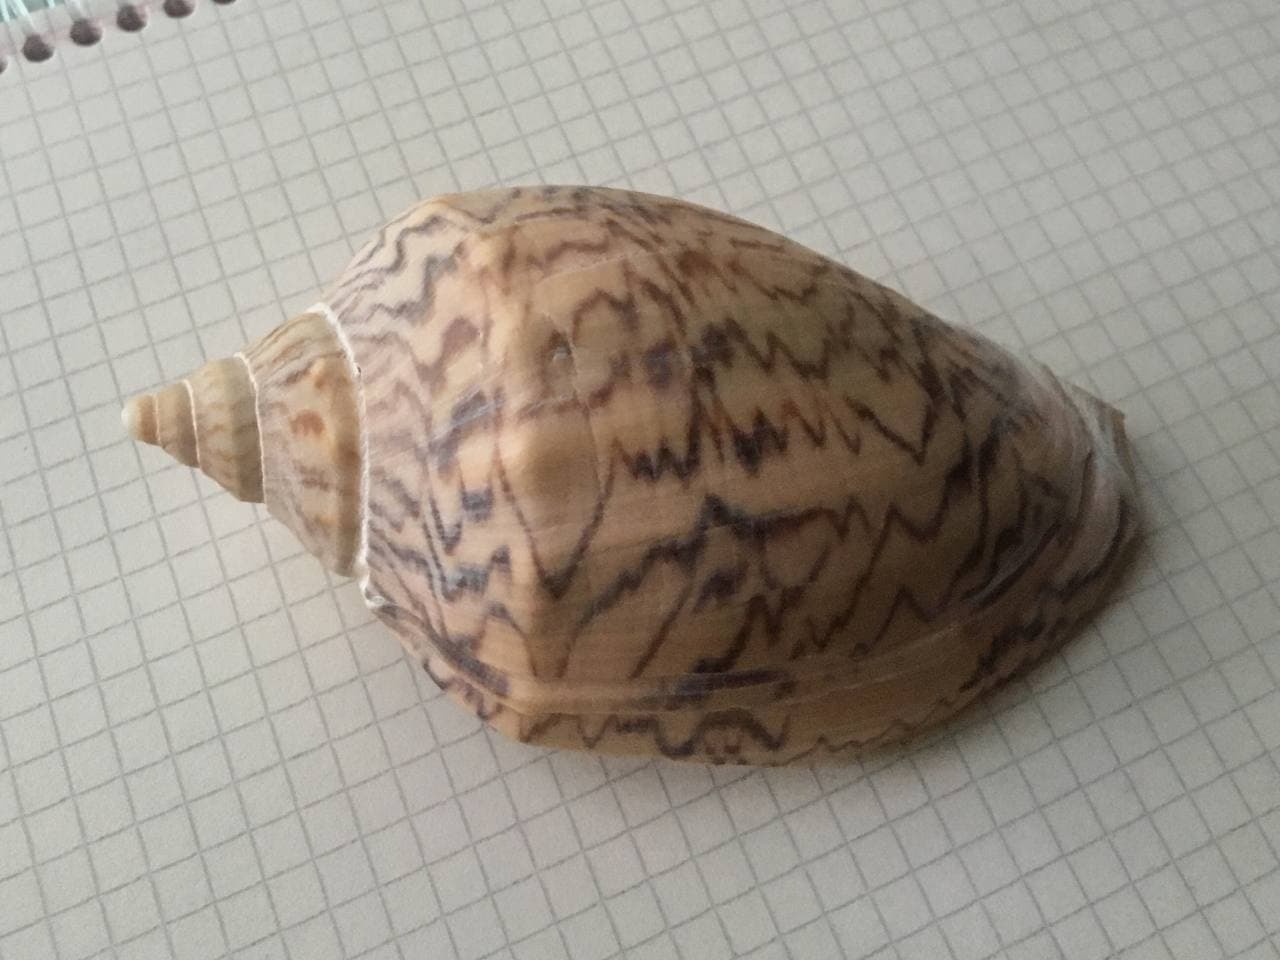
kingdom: Animalia
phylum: Mollusca
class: Gastropoda
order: Neogastropoda
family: Volutidae
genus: Odontocymbiola
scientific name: Odontocymbiola magellanica
